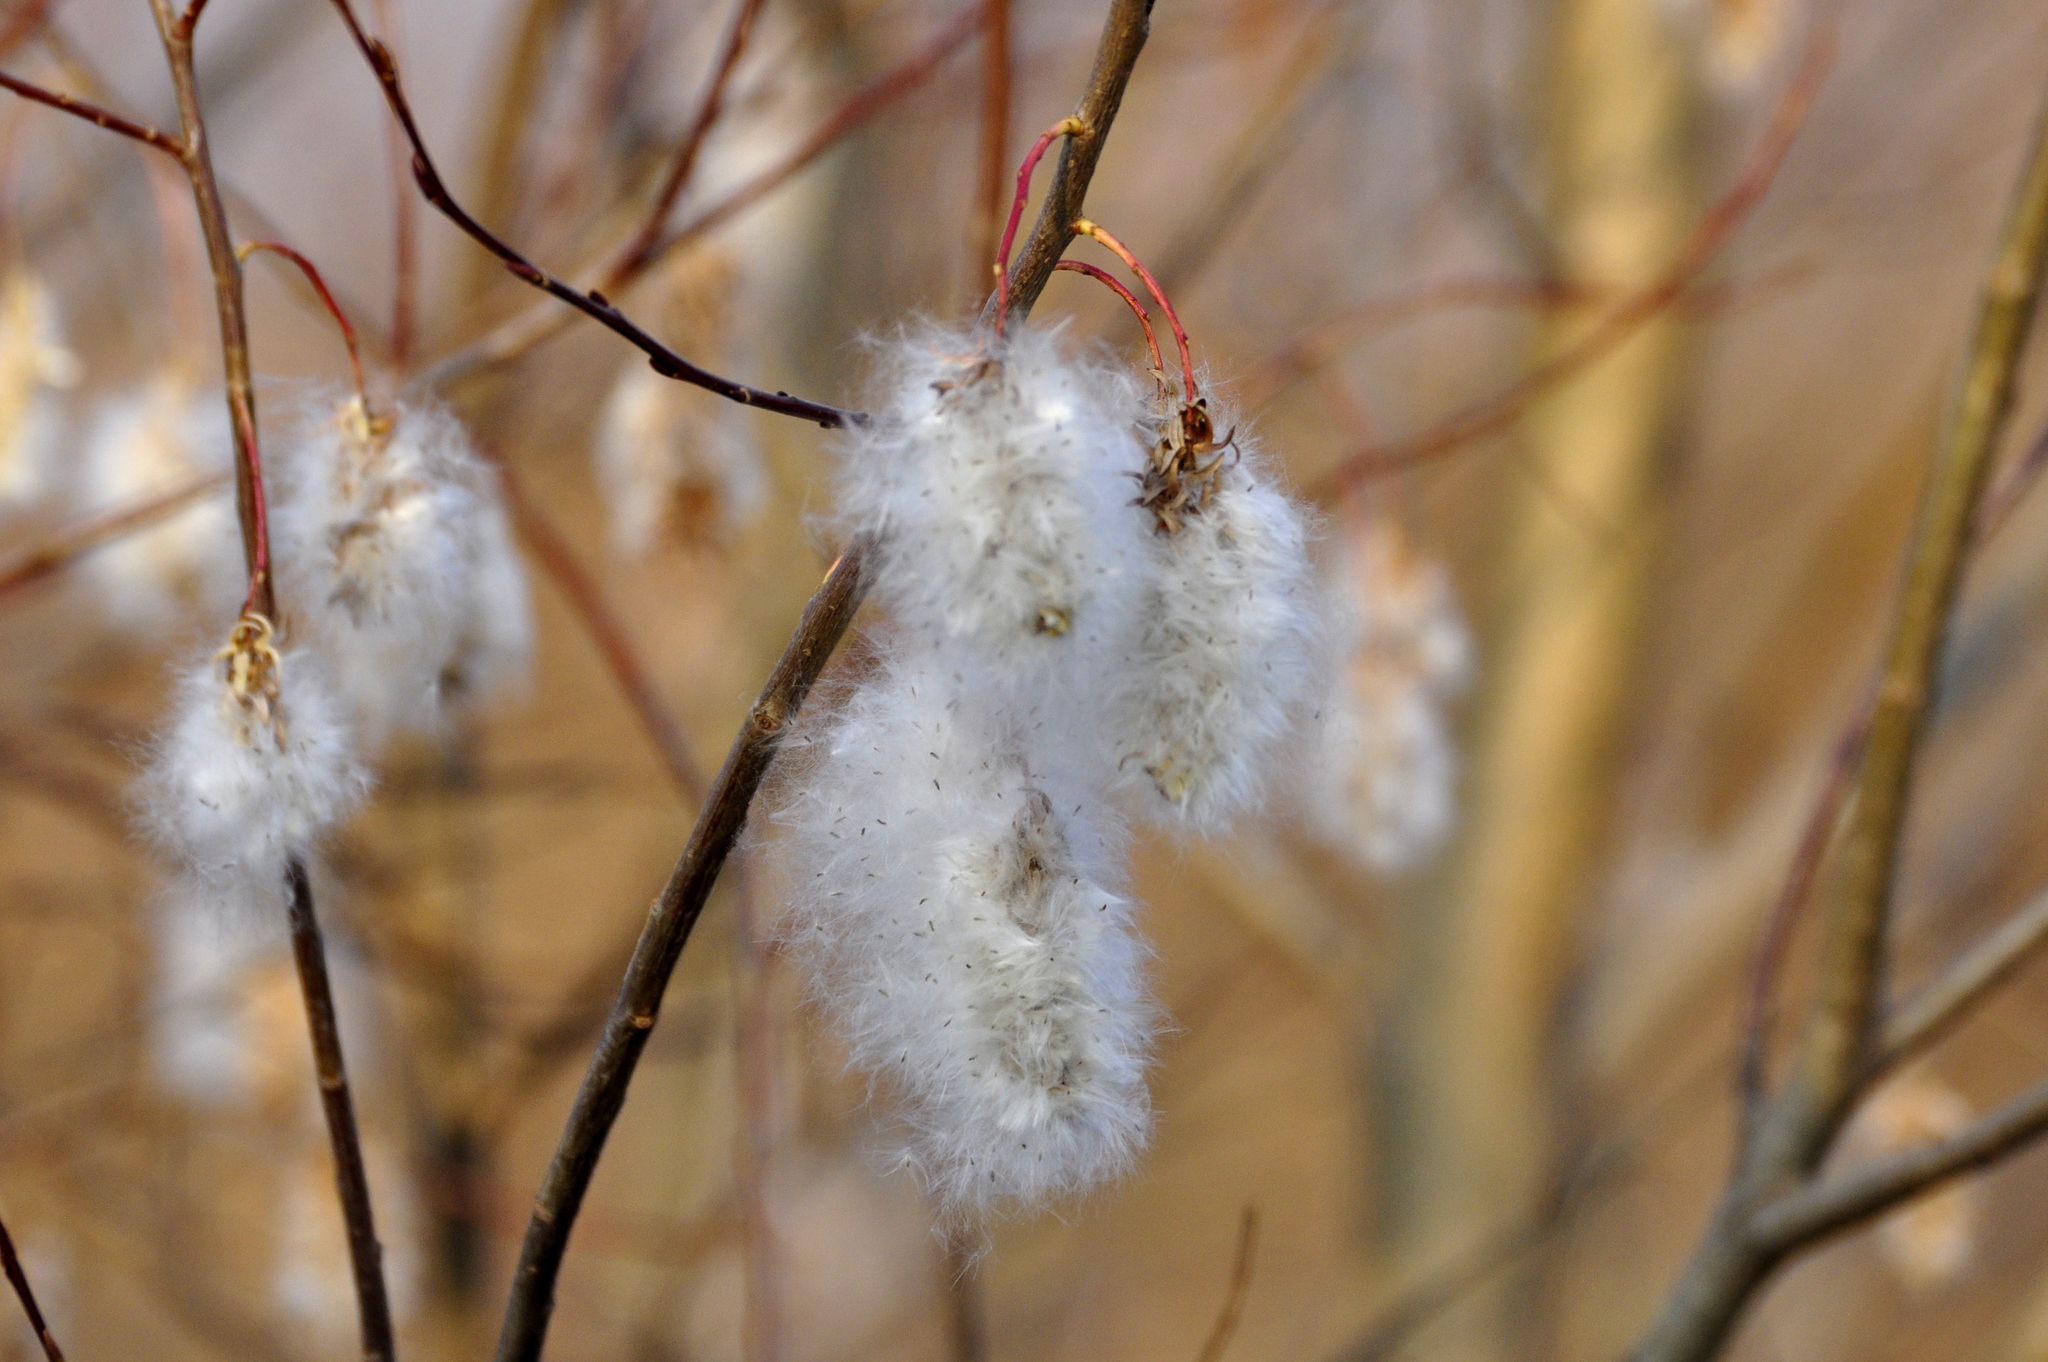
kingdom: Plantae
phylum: Tracheophyta
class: Magnoliopsida
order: Malpighiales
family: Salicaceae
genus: Salix
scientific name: Salix pentandra
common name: Bay willow
